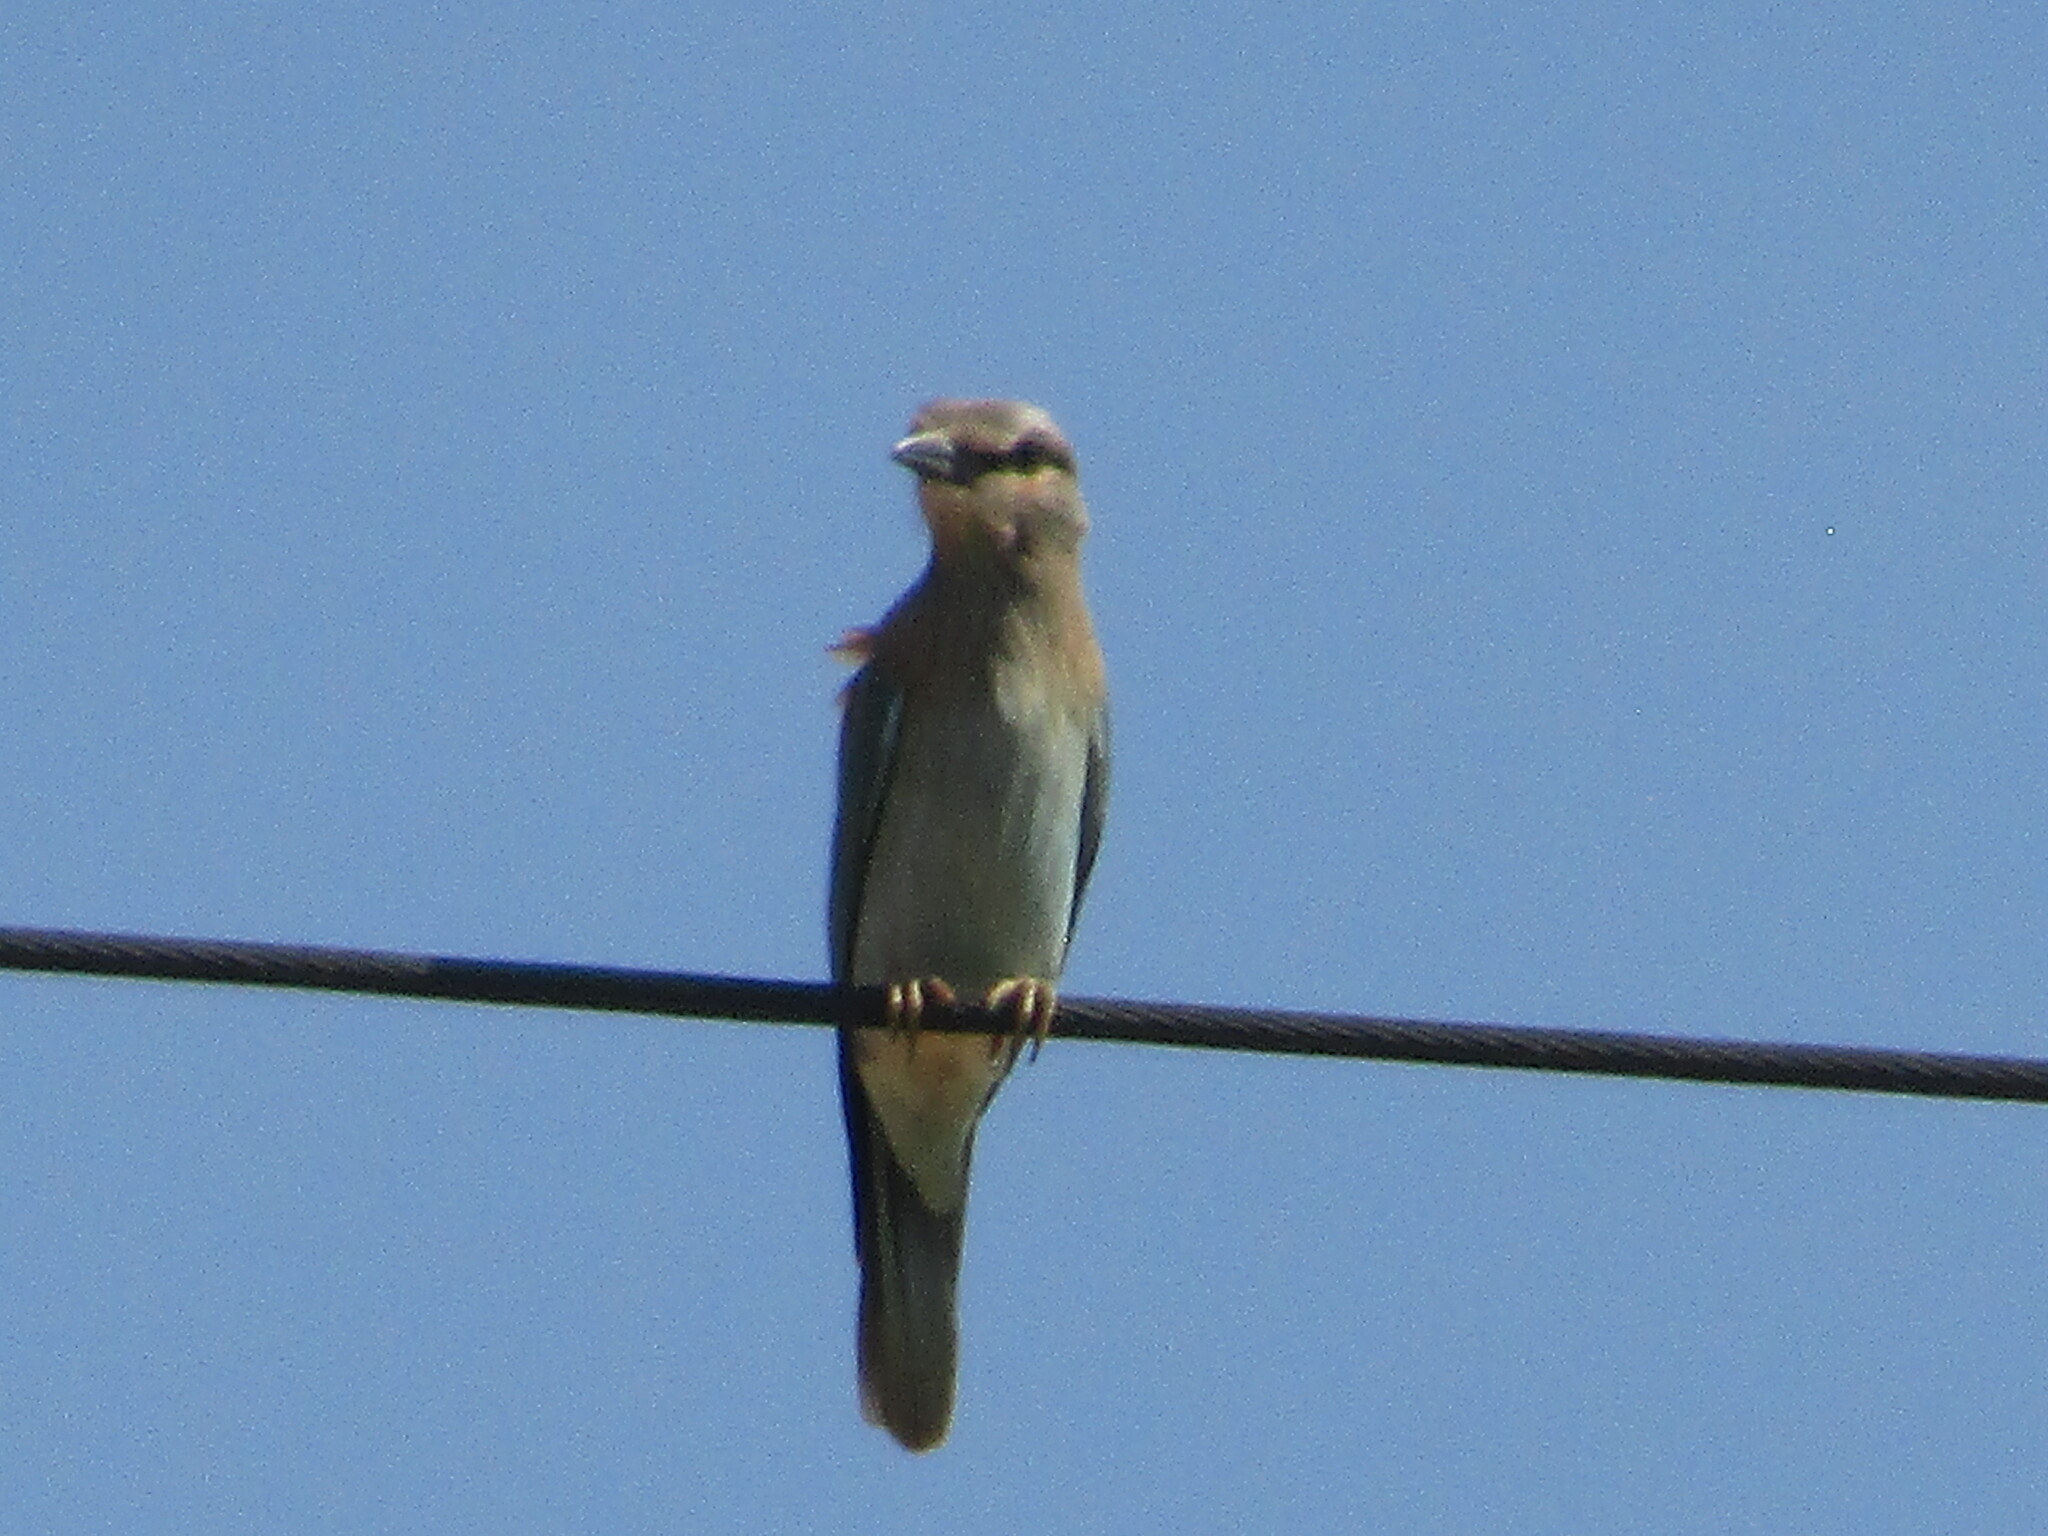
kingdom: Animalia
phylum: Chordata
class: Aves
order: Coraciiformes
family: Coraciidae
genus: Coracias
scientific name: Coracias garrulus
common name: European roller
